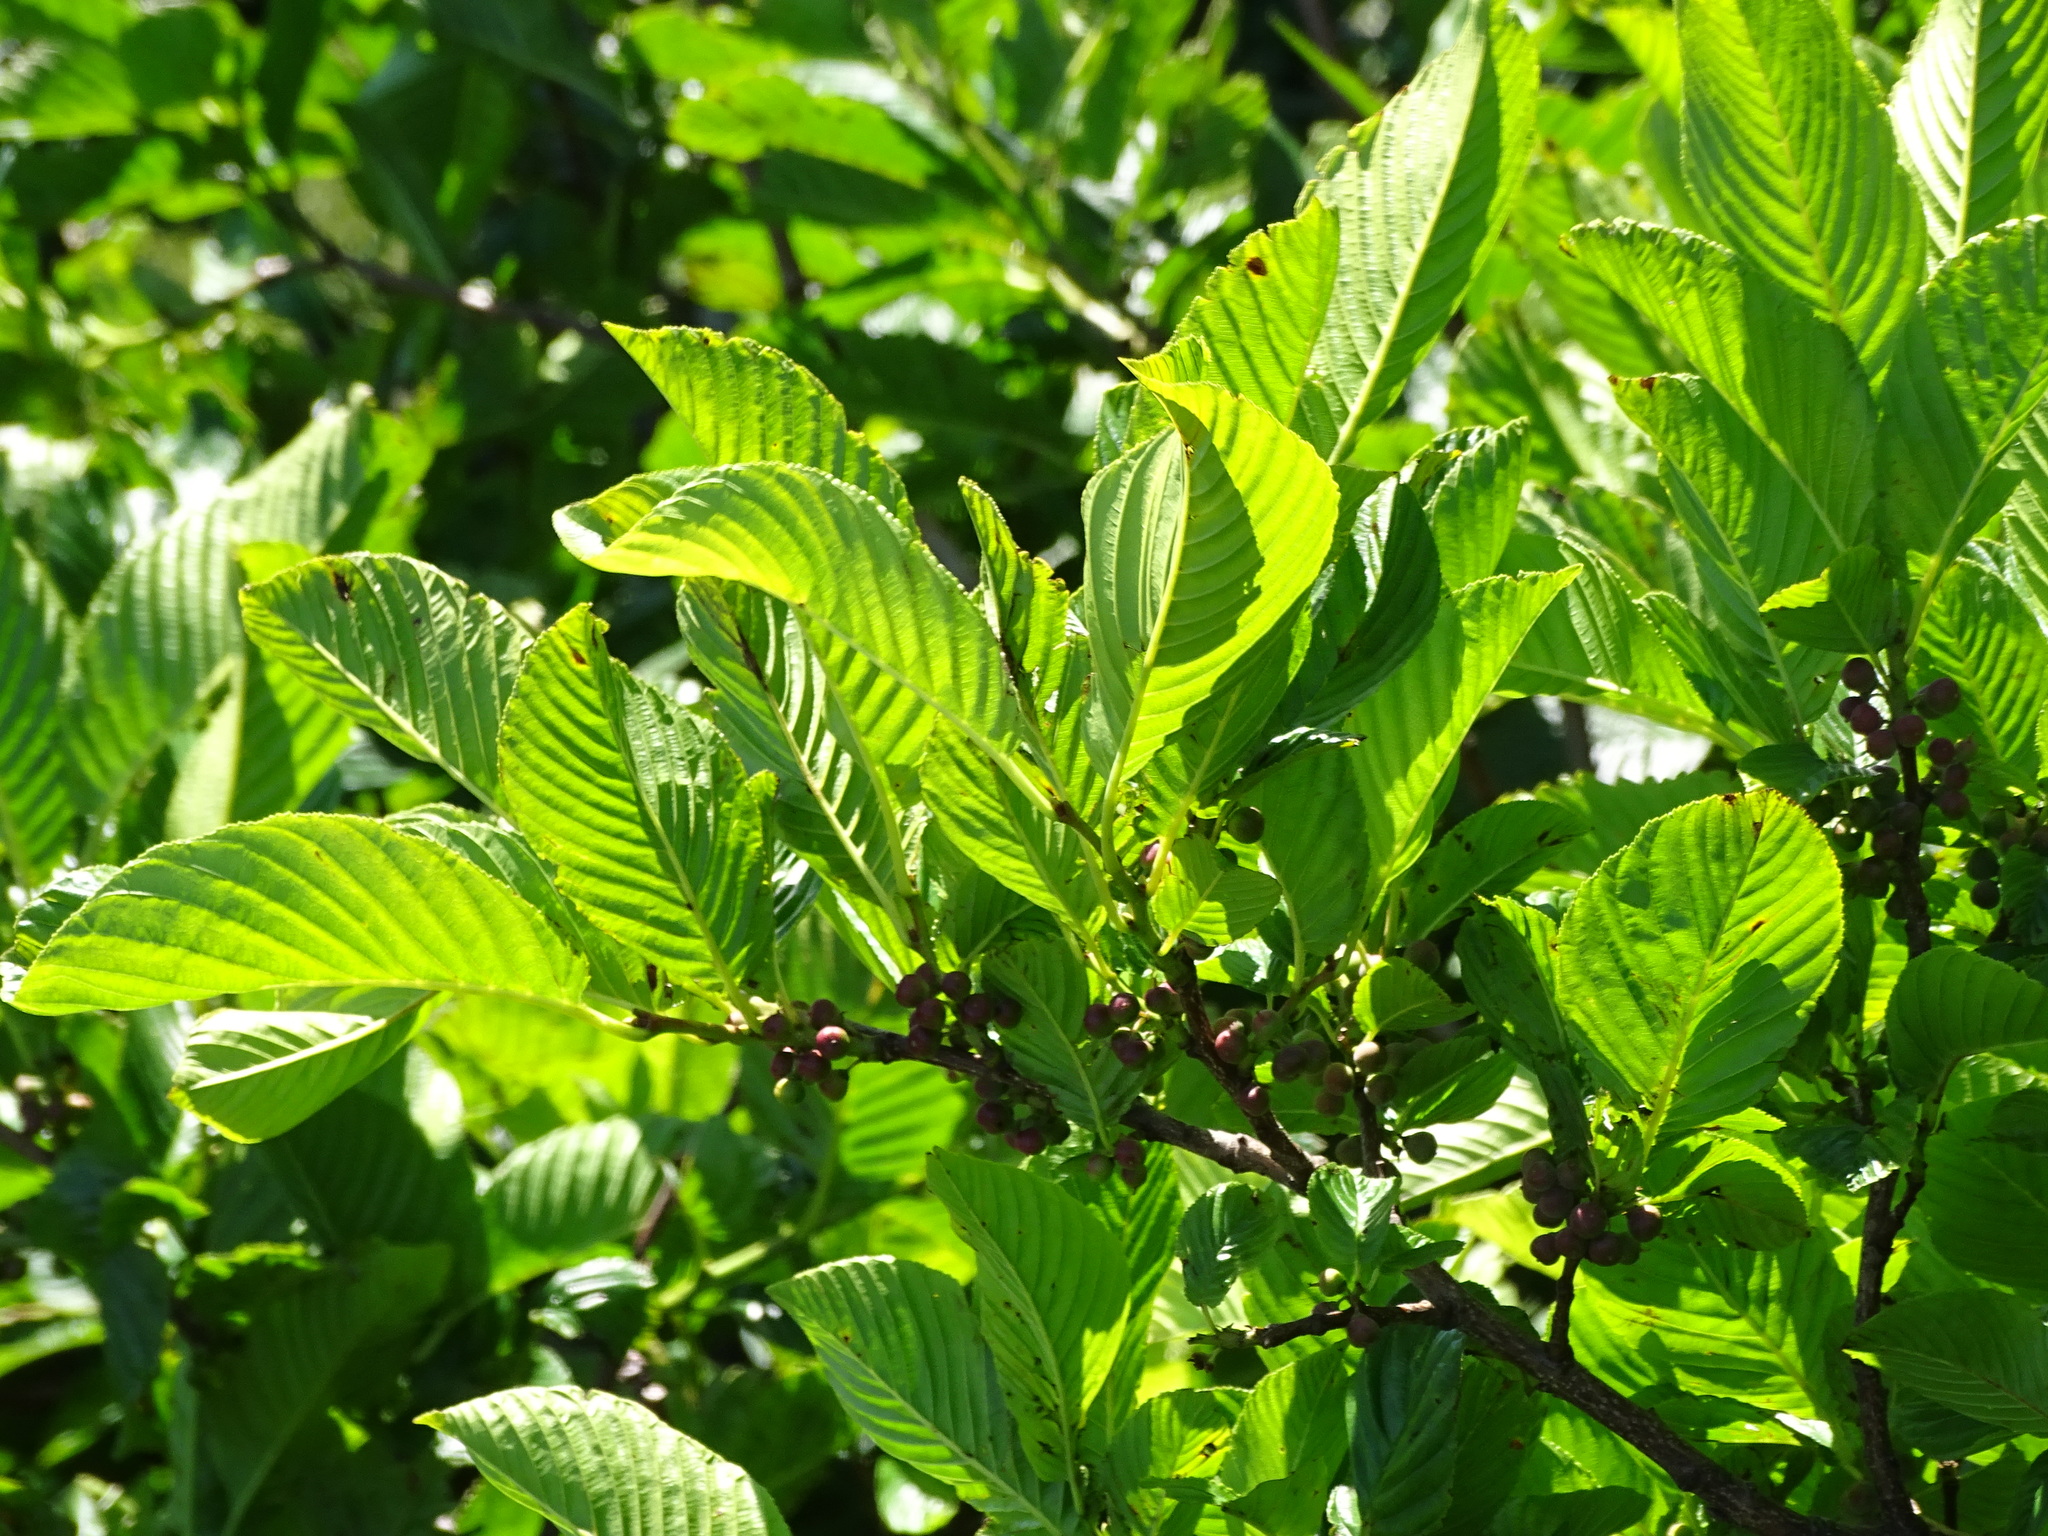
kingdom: Plantae
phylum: Tracheophyta
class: Magnoliopsida
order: Rosales
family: Rhamnaceae
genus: Atadinus
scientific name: Atadinus fallax
